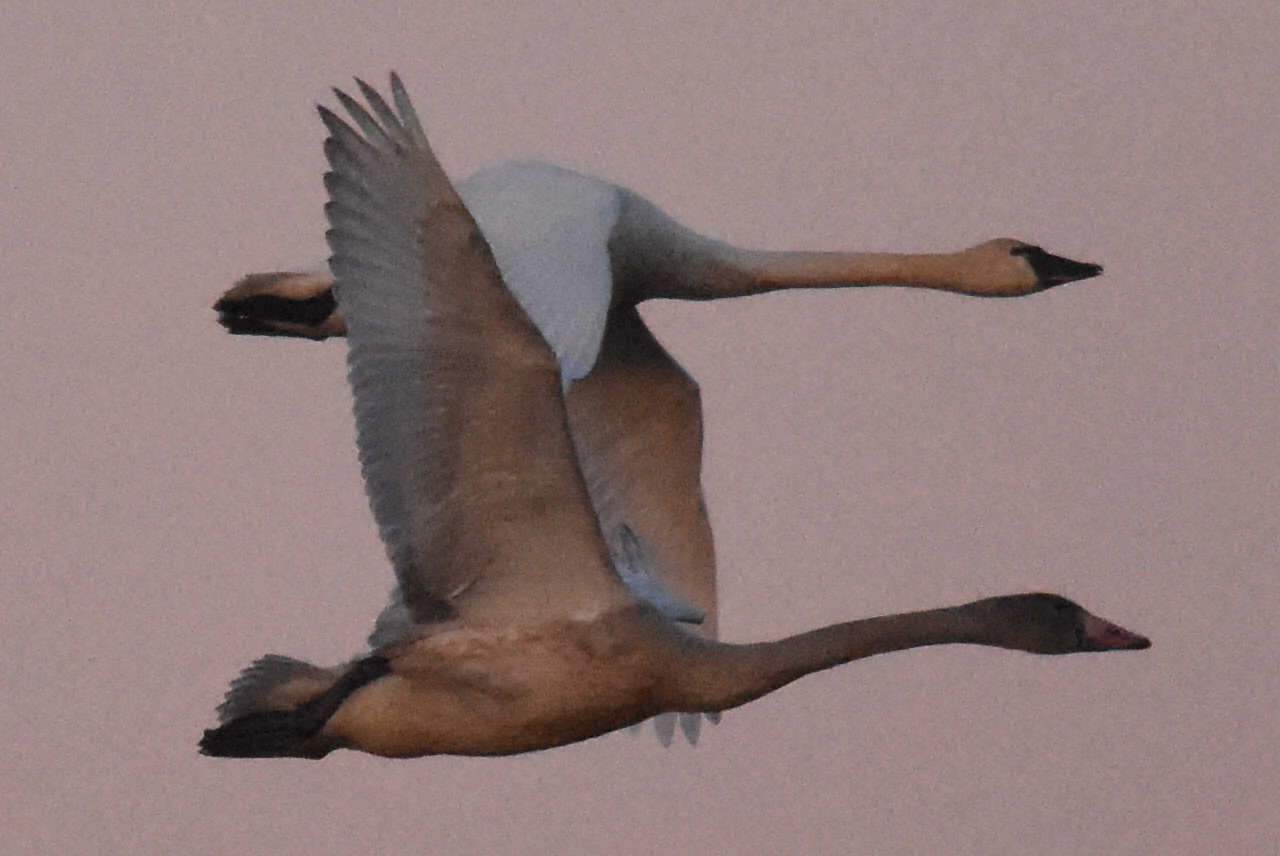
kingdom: Animalia
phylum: Chordata
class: Aves
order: Anseriformes
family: Anatidae
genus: Cygnus
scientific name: Cygnus columbianus
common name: Tundra swan
